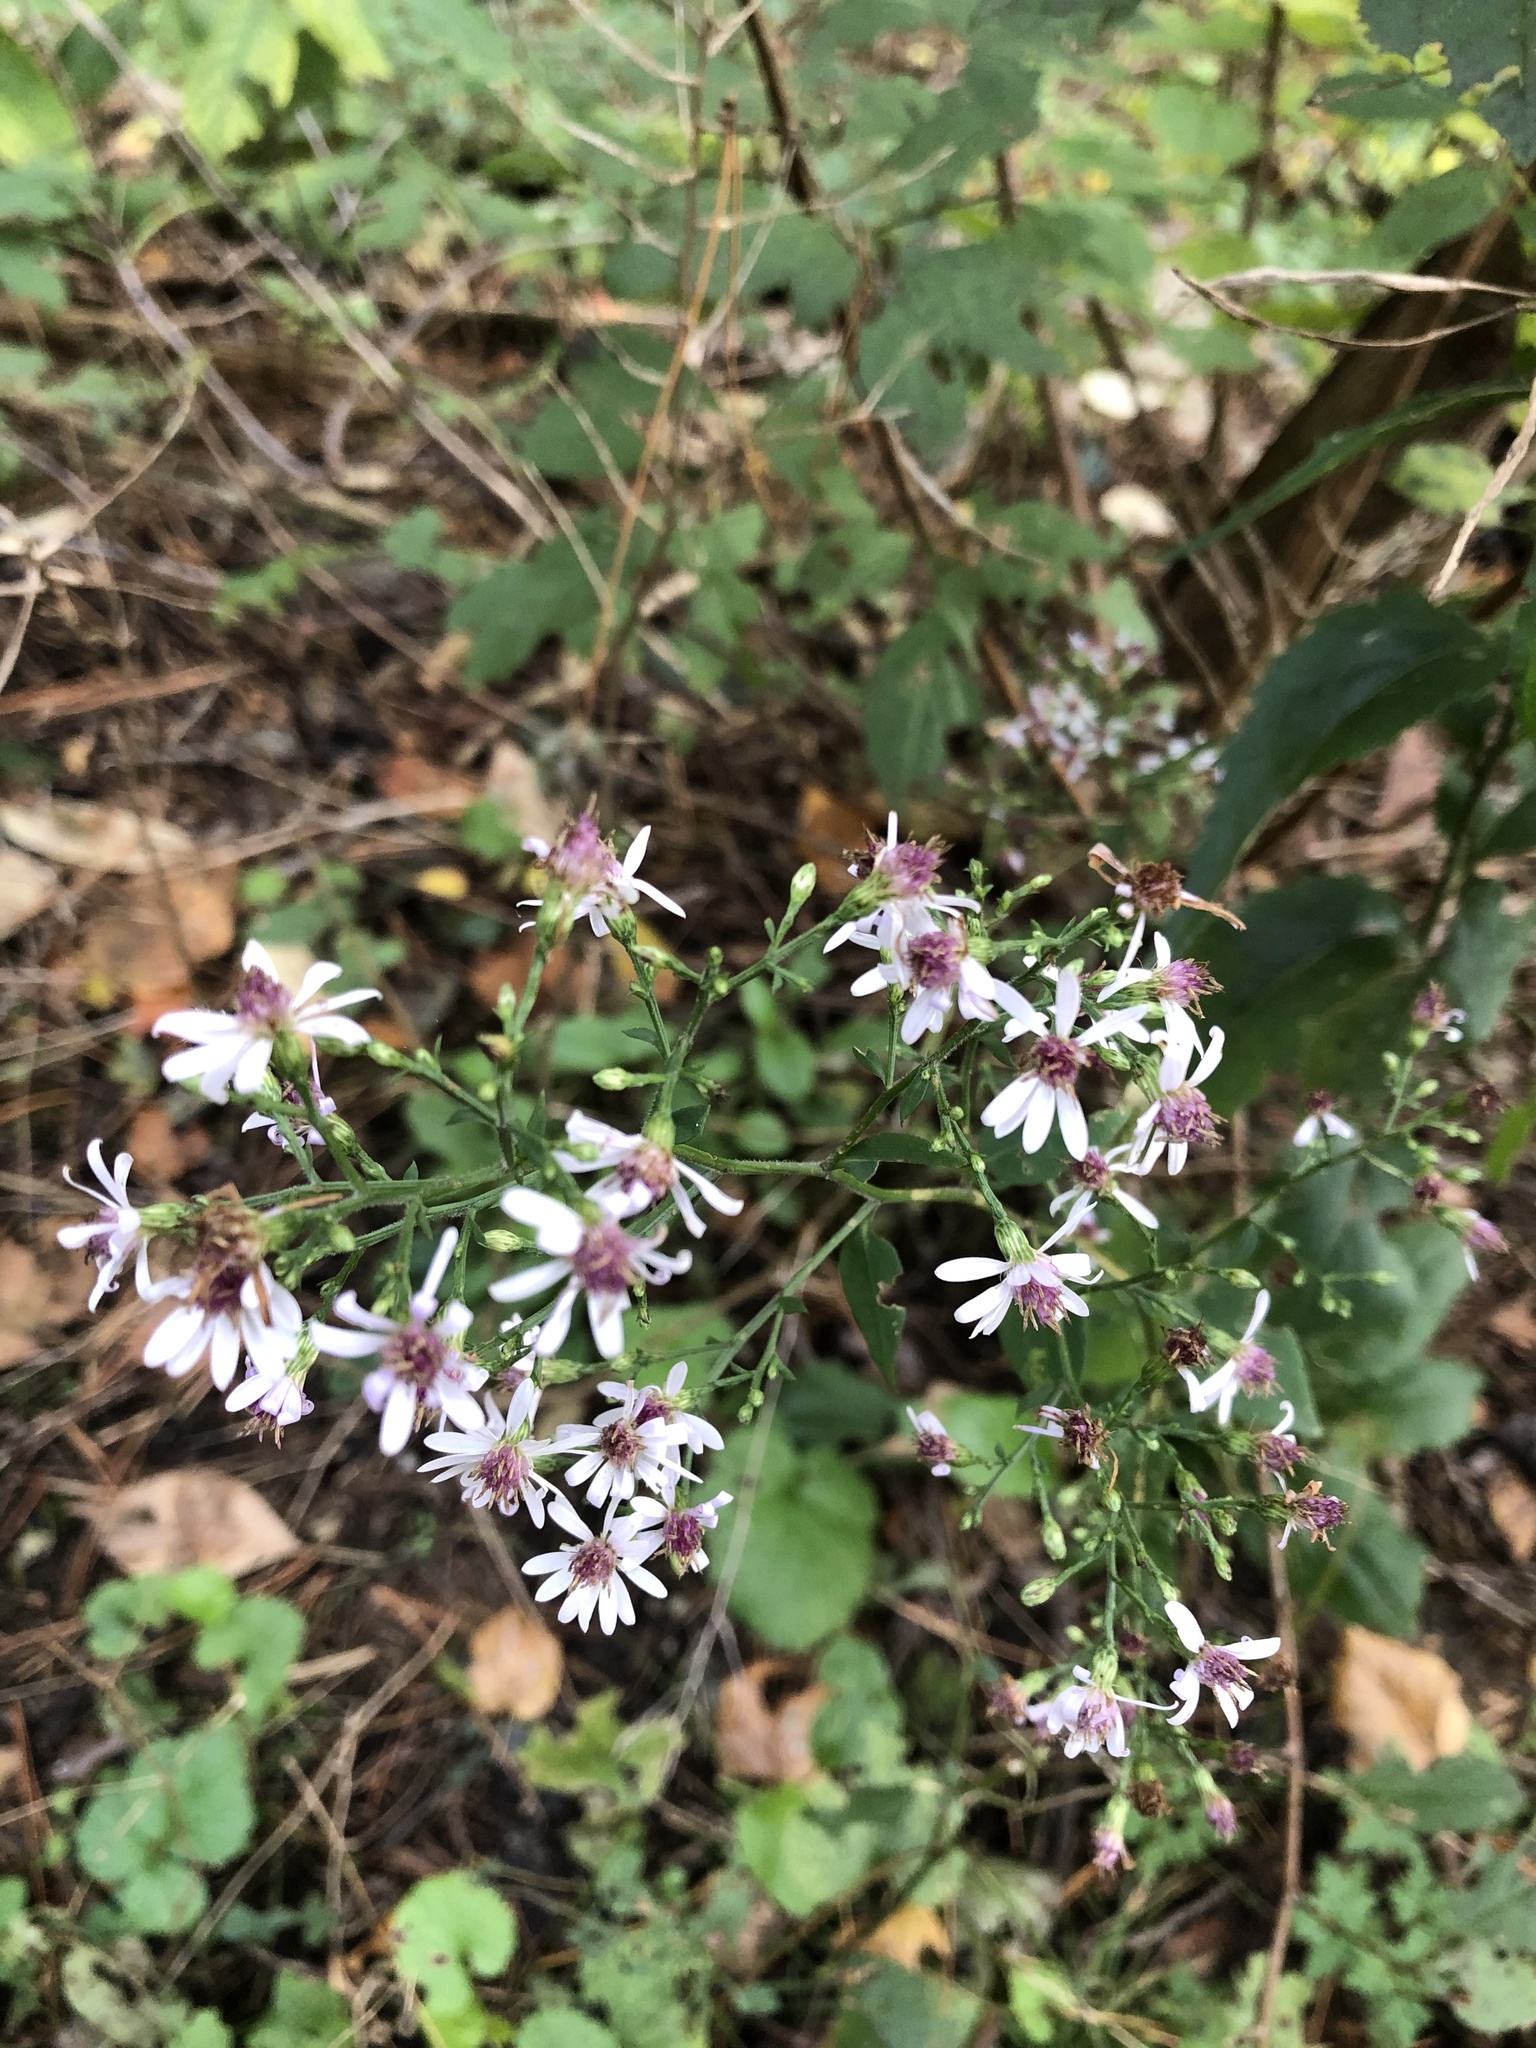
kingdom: Plantae
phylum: Tracheophyta
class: Magnoliopsida
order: Asterales
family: Asteraceae
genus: Symphyotrichum
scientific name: Symphyotrichum cordifolium
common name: Beeweed
